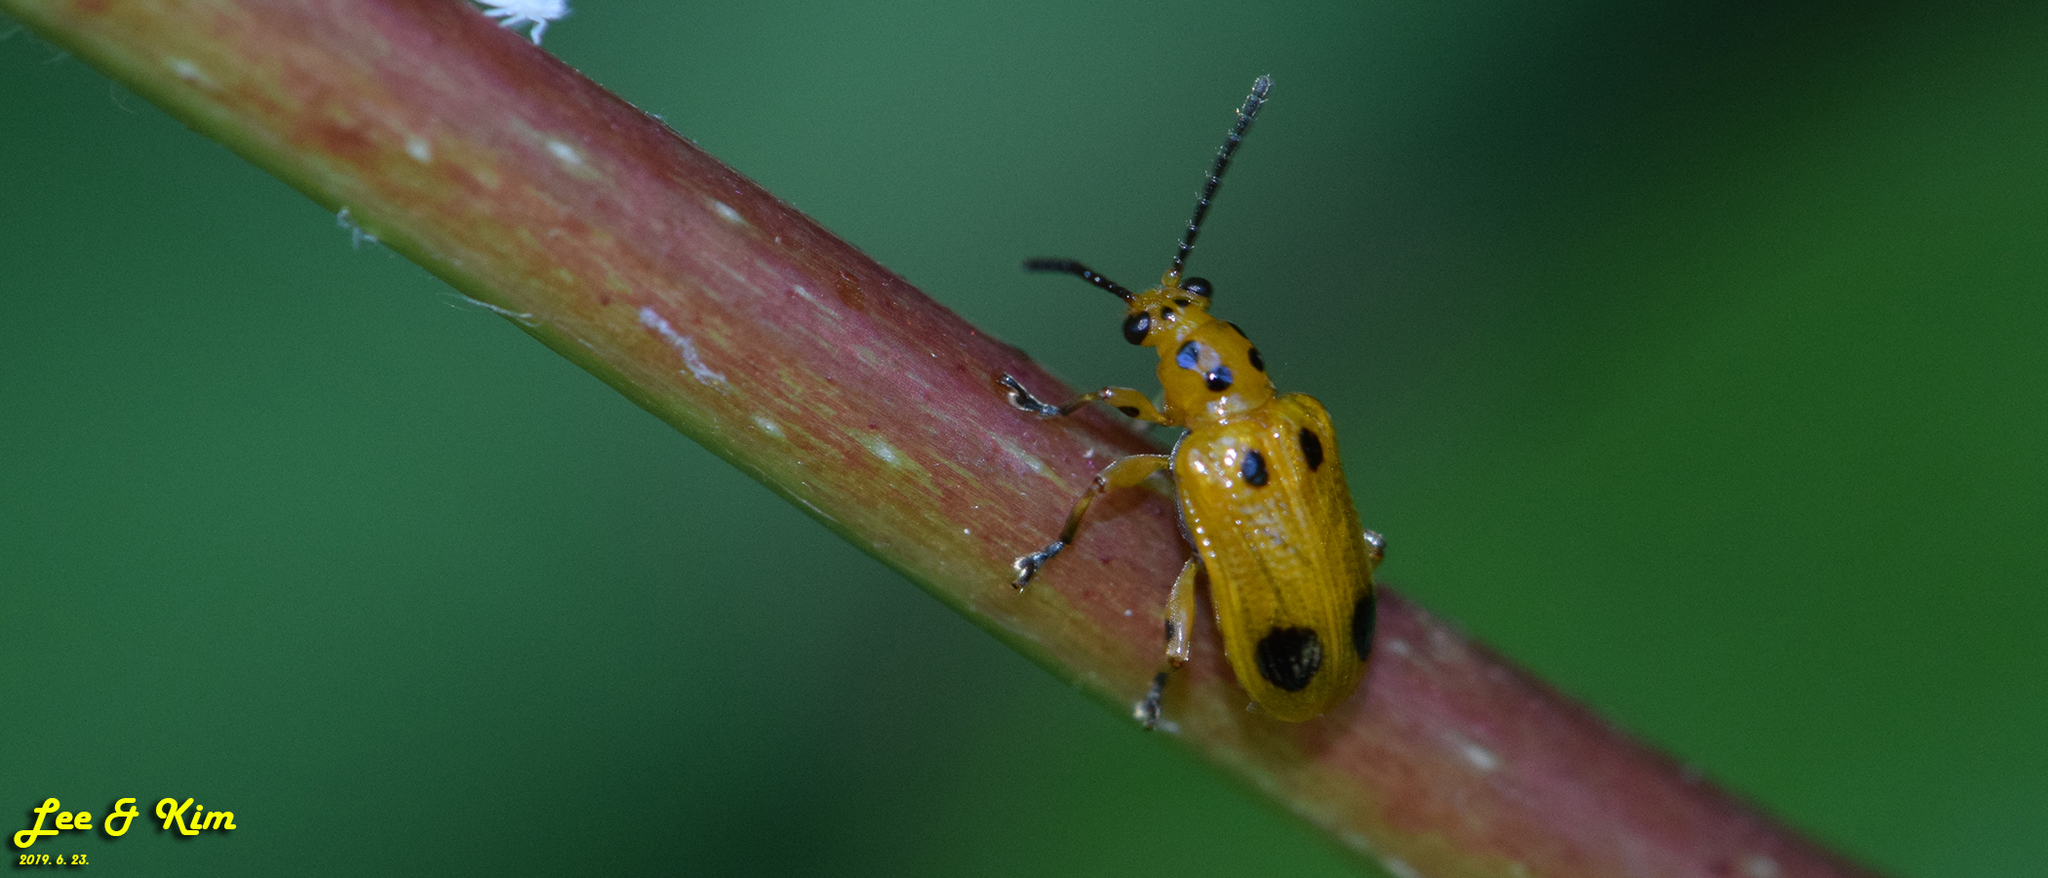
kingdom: Animalia
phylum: Arthropoda
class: Insecta
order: Coleoptera
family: Chrysomelidae
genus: Lema
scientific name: Lema
